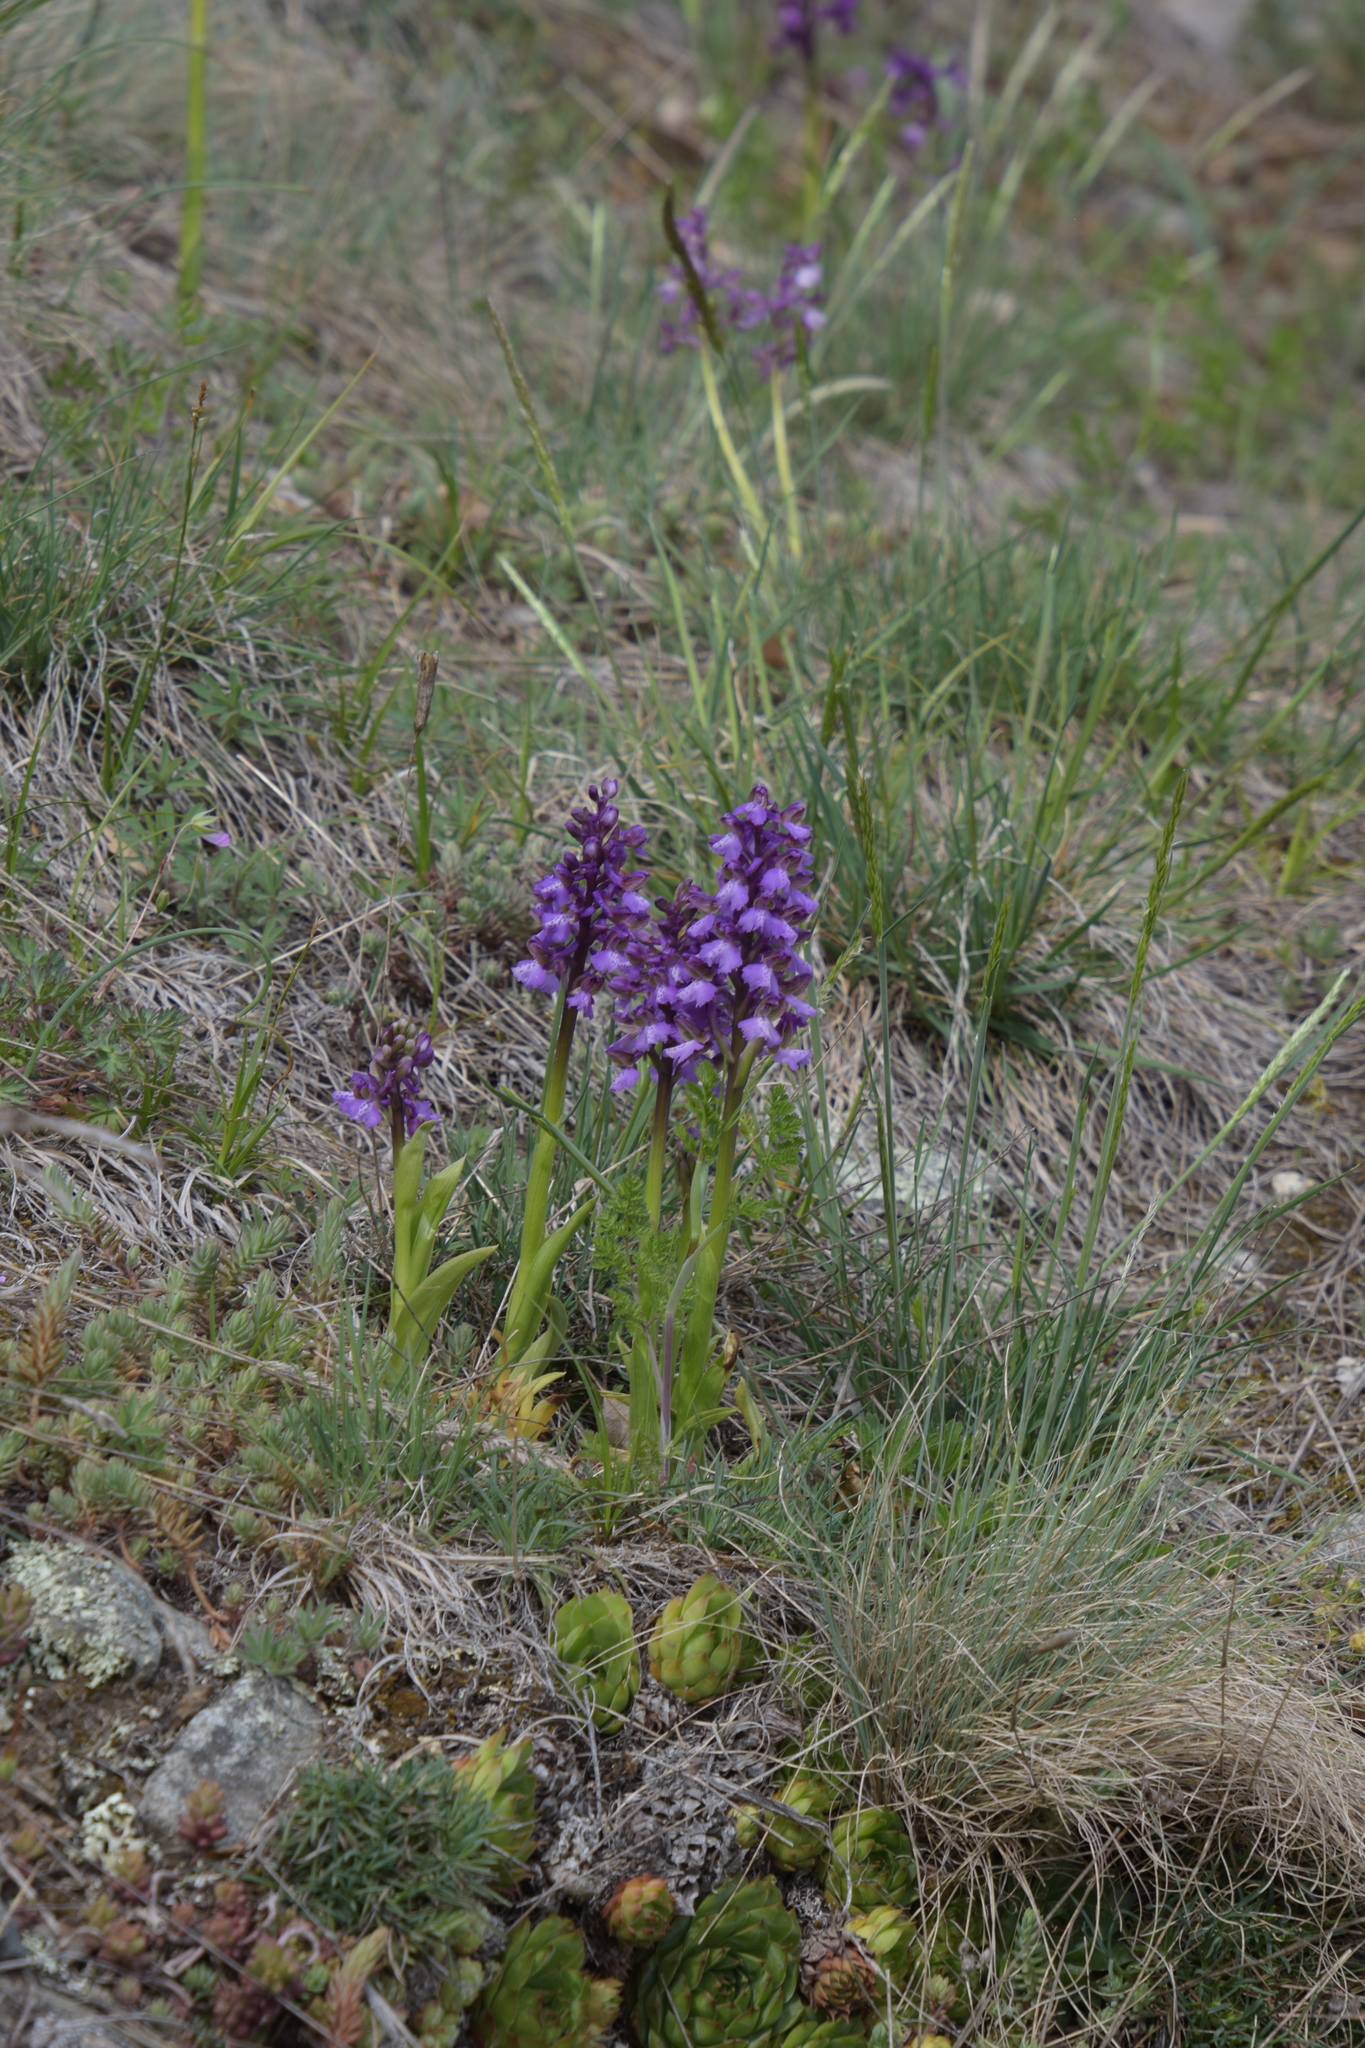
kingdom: Plantae
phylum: Tracheophyta
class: Liliopsida
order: Asparagales
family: Orchidaceae
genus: Anacamptis
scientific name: Anacamptis morio
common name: Green-winged orchid
